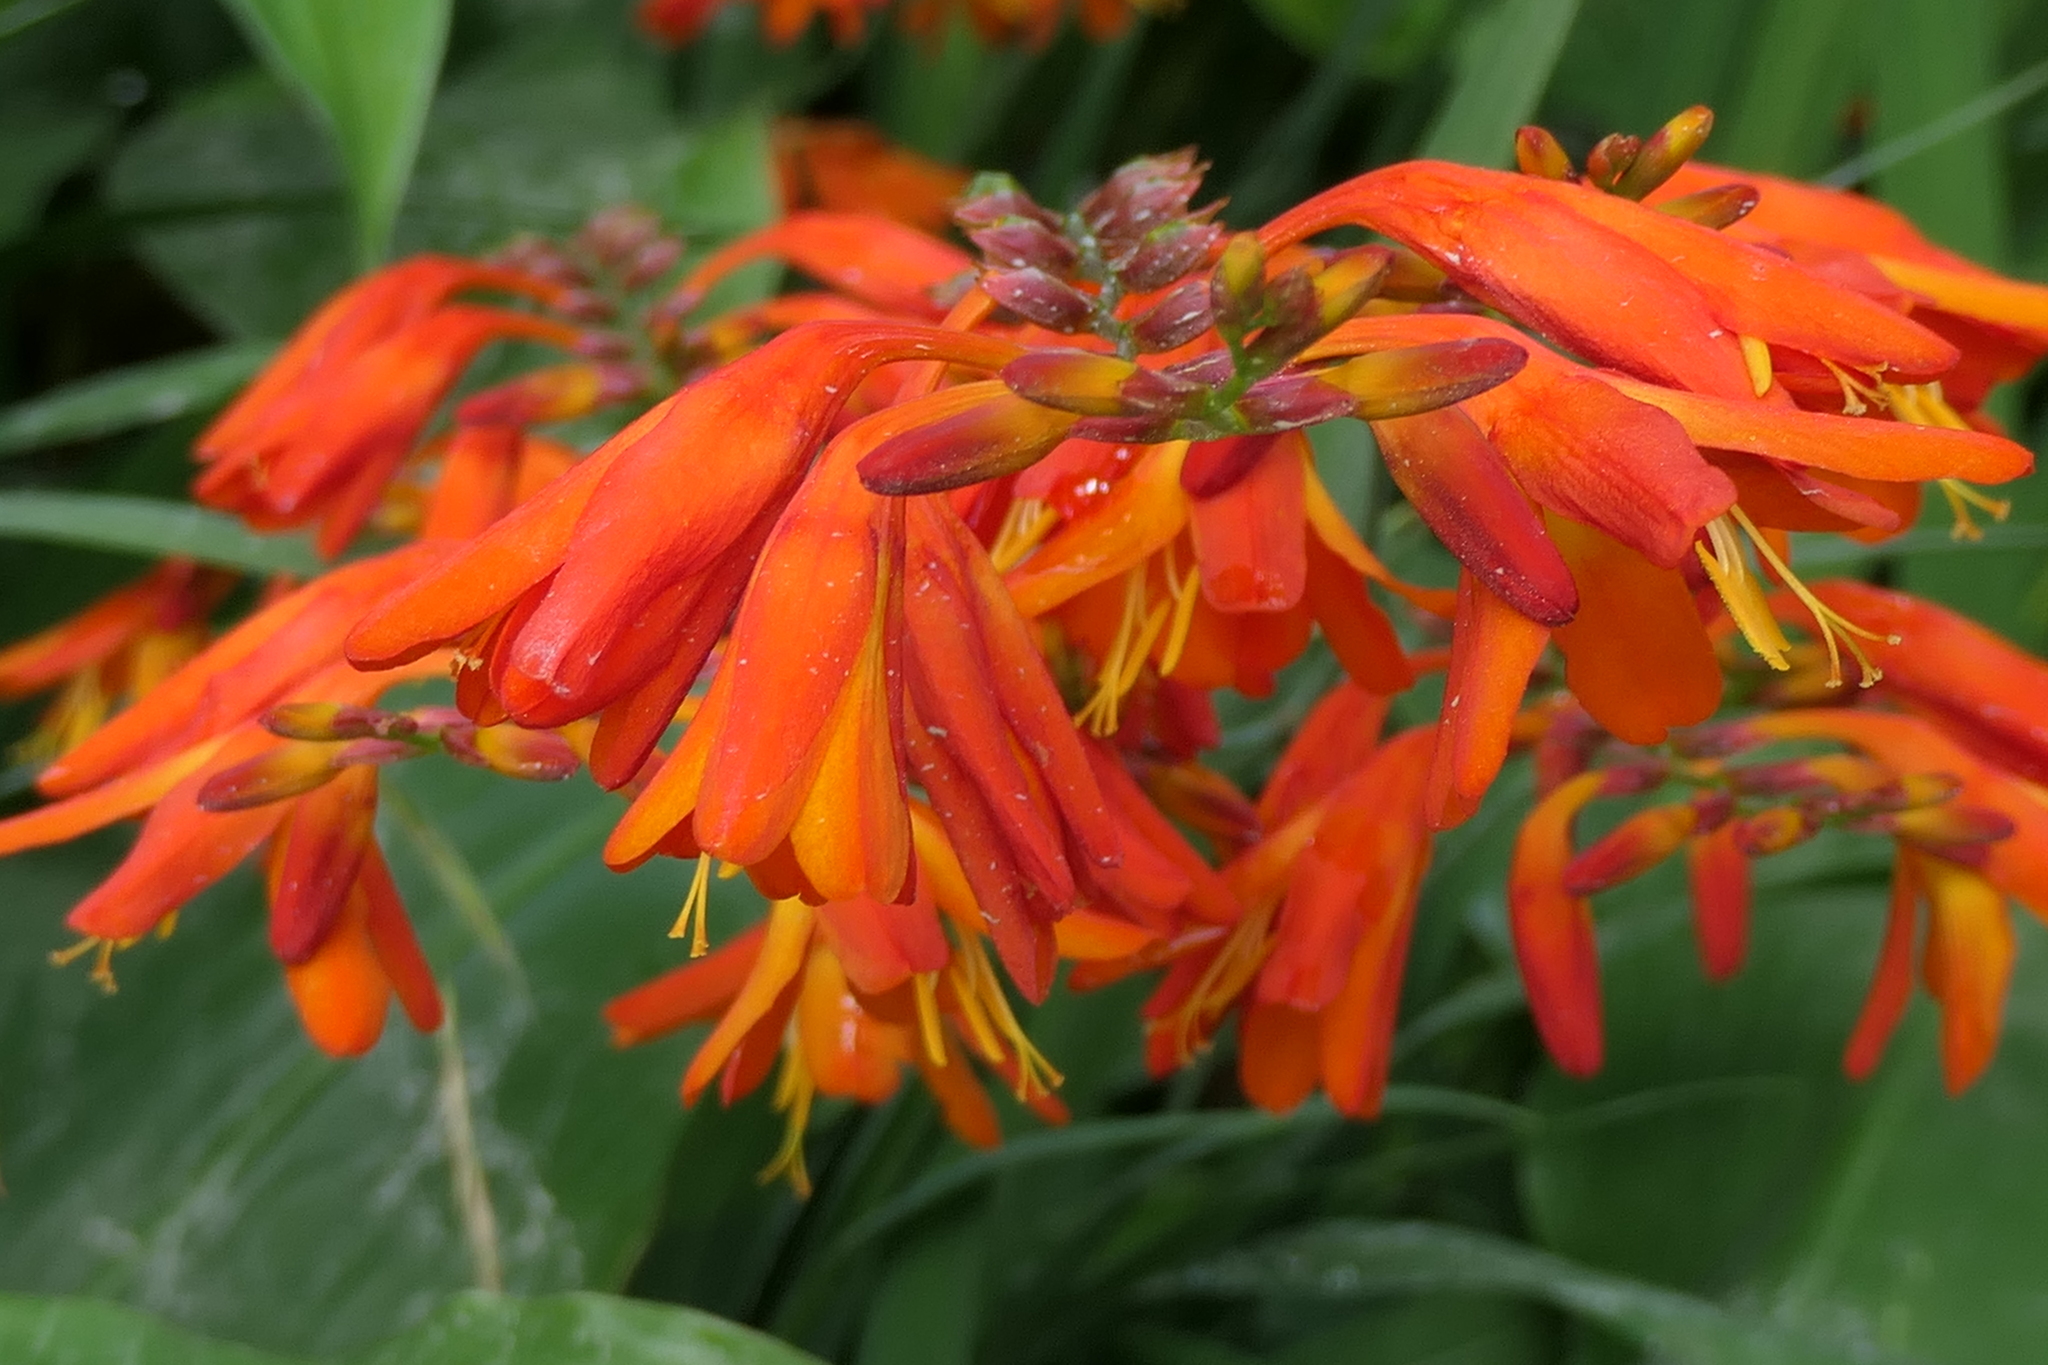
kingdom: Plantae
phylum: Tracheophyta
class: Liliopsida
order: Asparagales
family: Iridaceae
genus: Crocosmia
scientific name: Crocosmia crocosmiiflora
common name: Montbretia
